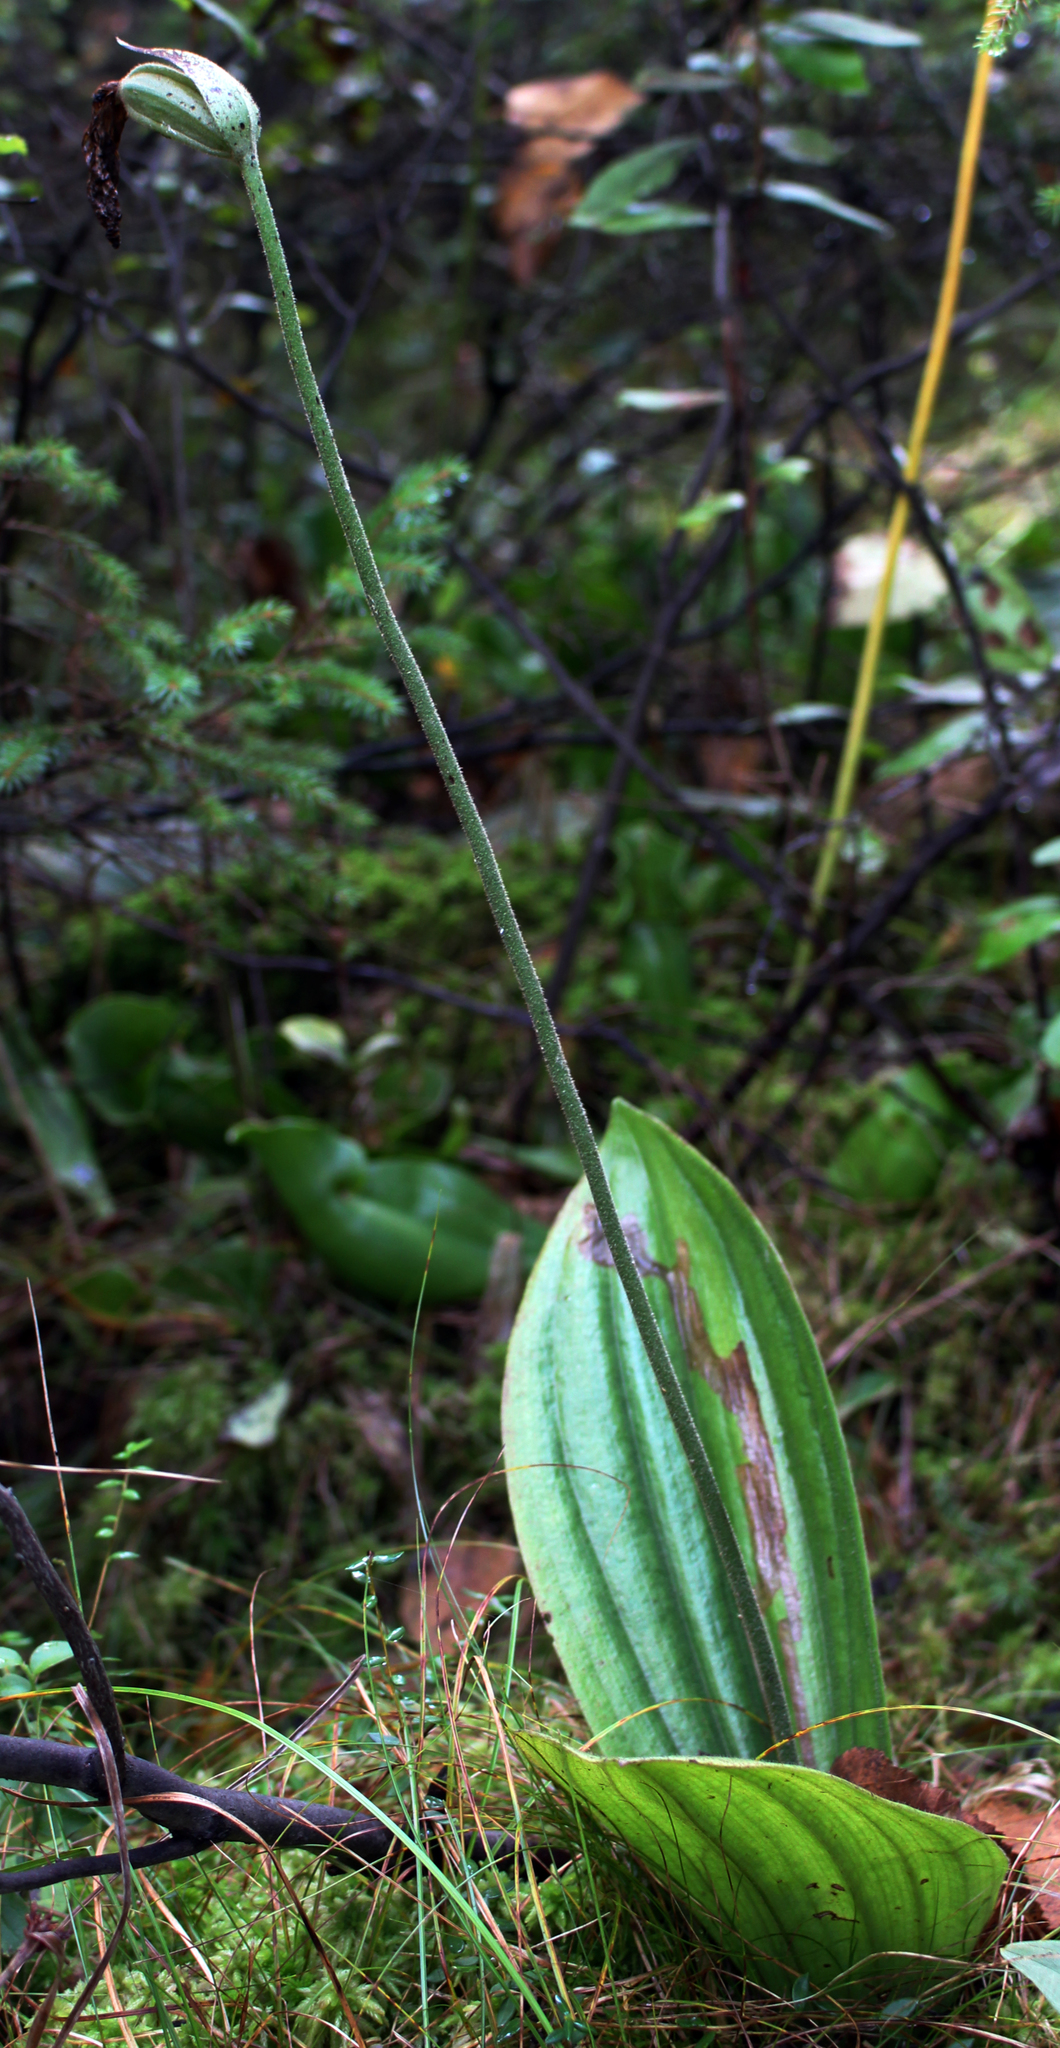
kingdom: Plantae
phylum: Tracheophyta
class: Liliopsida
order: Asparagales
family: Orchidaceae
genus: Cypripedium
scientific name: Cypripedium acaule
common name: Pink lady's-slipper
